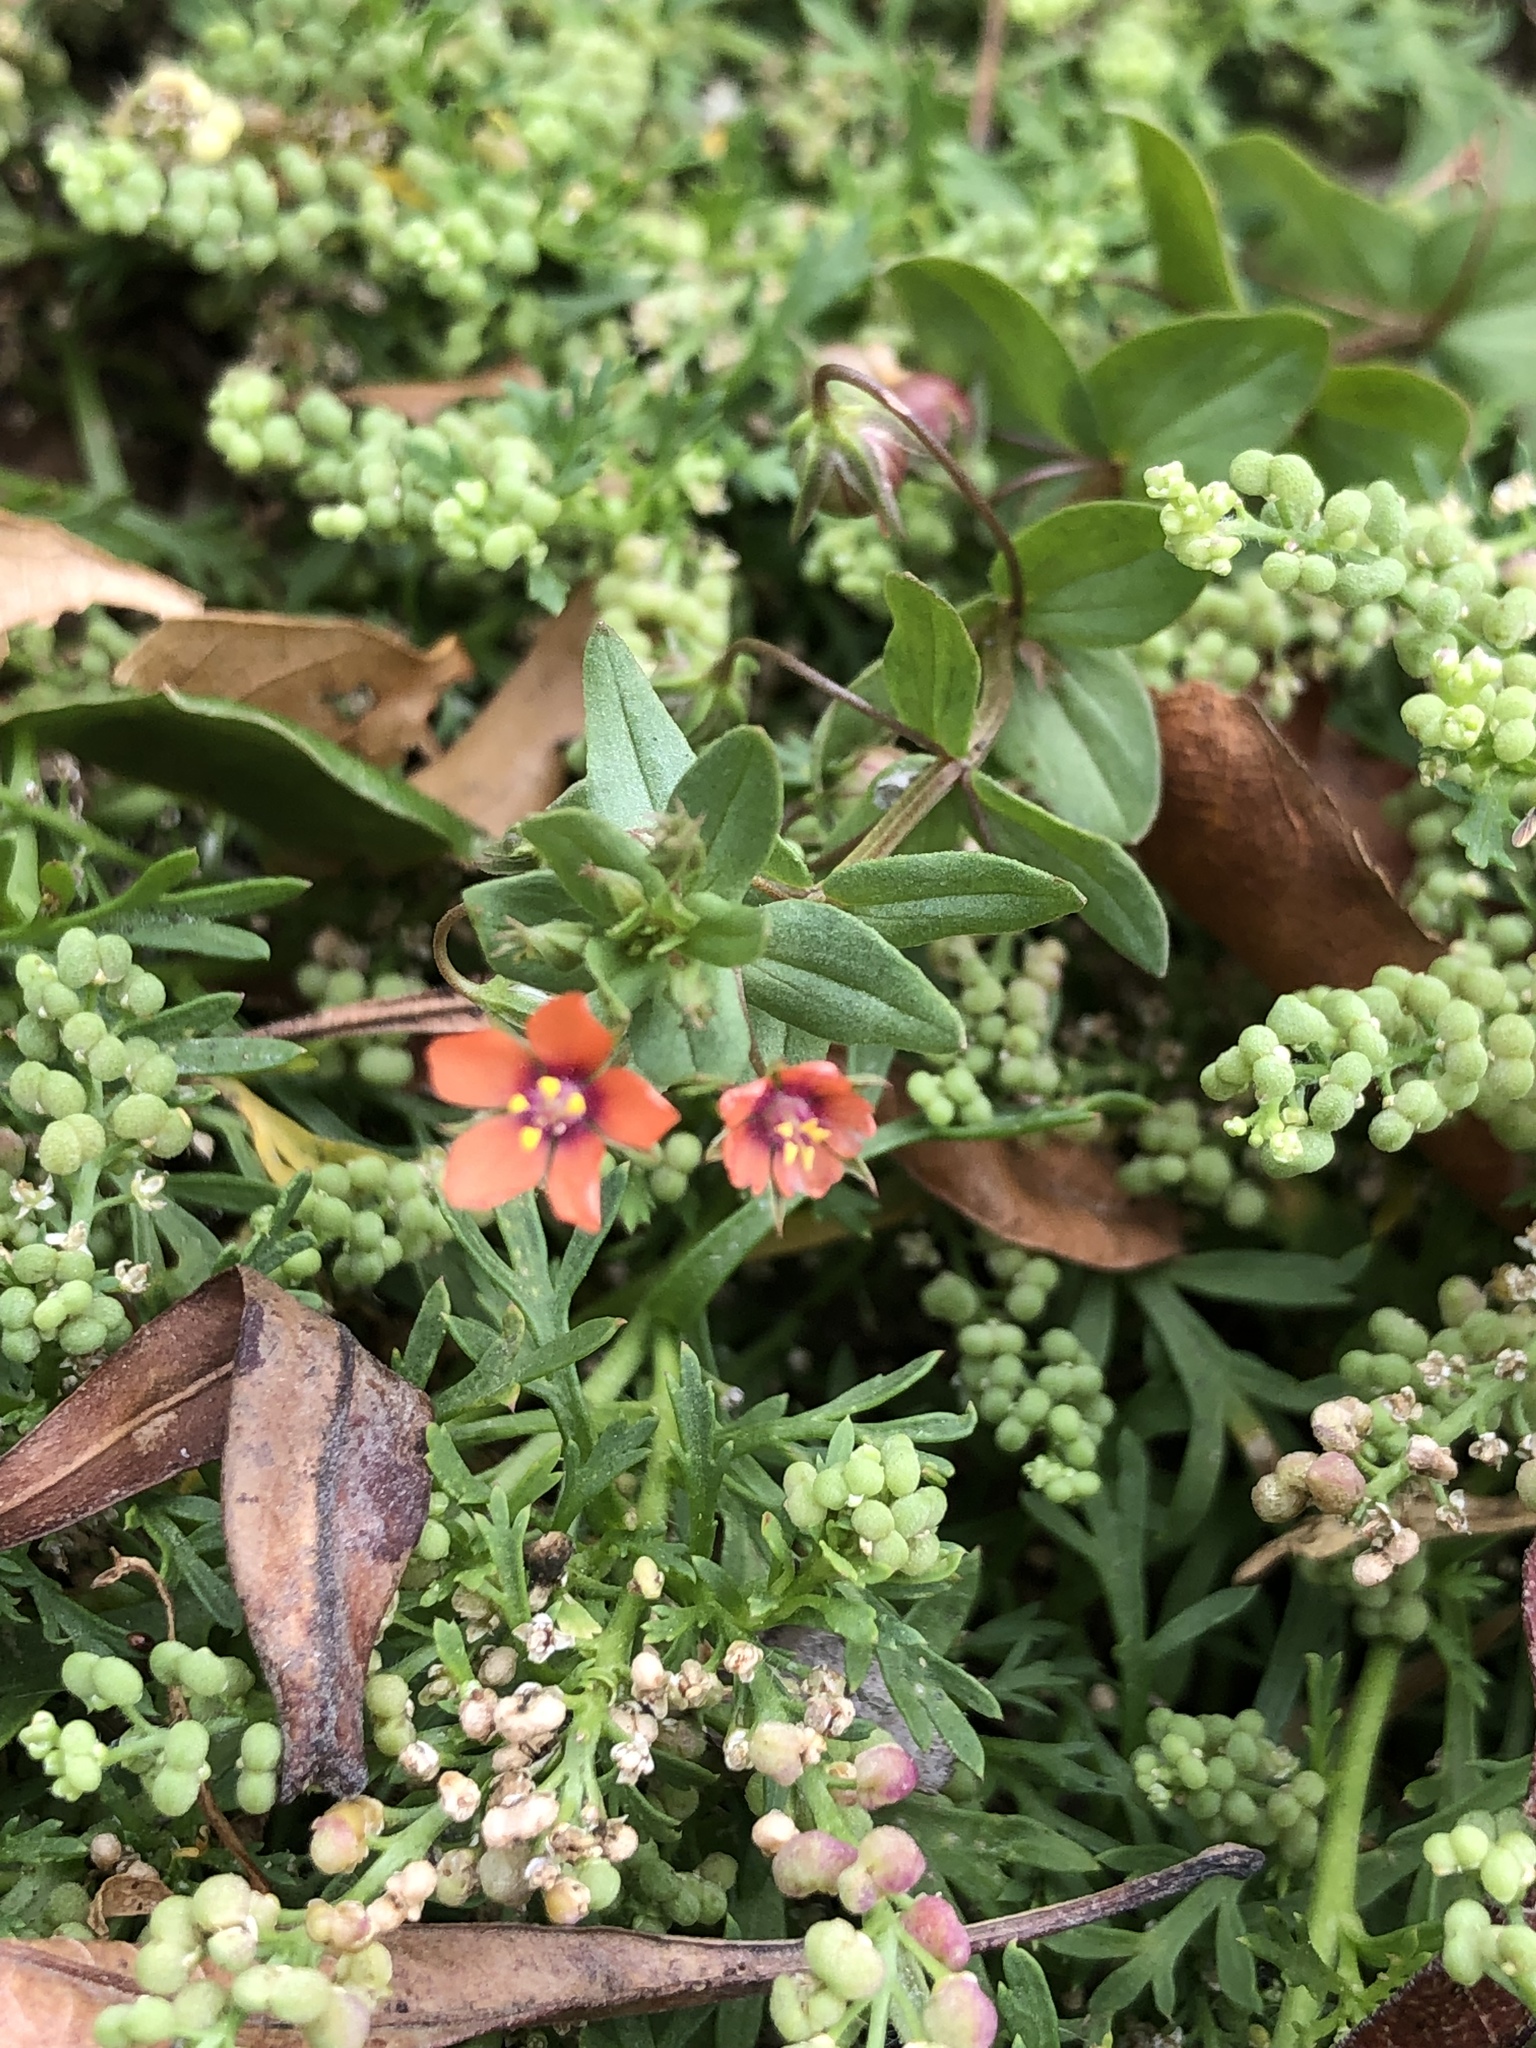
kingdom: Plantae
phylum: Tracheophyta
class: Magnoliopsida
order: Ericales
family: Primulaceae
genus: Lysimachia
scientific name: Lysimachia arvensis
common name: Scarlet pimpernel
